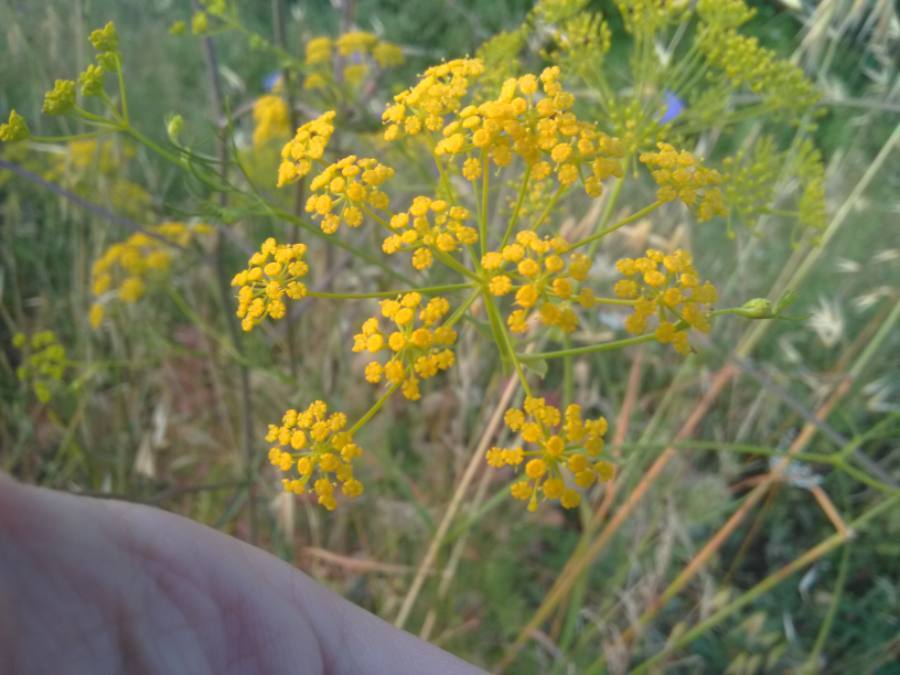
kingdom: Plantae
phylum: Tracheophyta
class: Magnoliopsida
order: Apiales
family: Apiaceae
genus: Foeniculum
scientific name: Foeniculum vulgare
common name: Fennel
